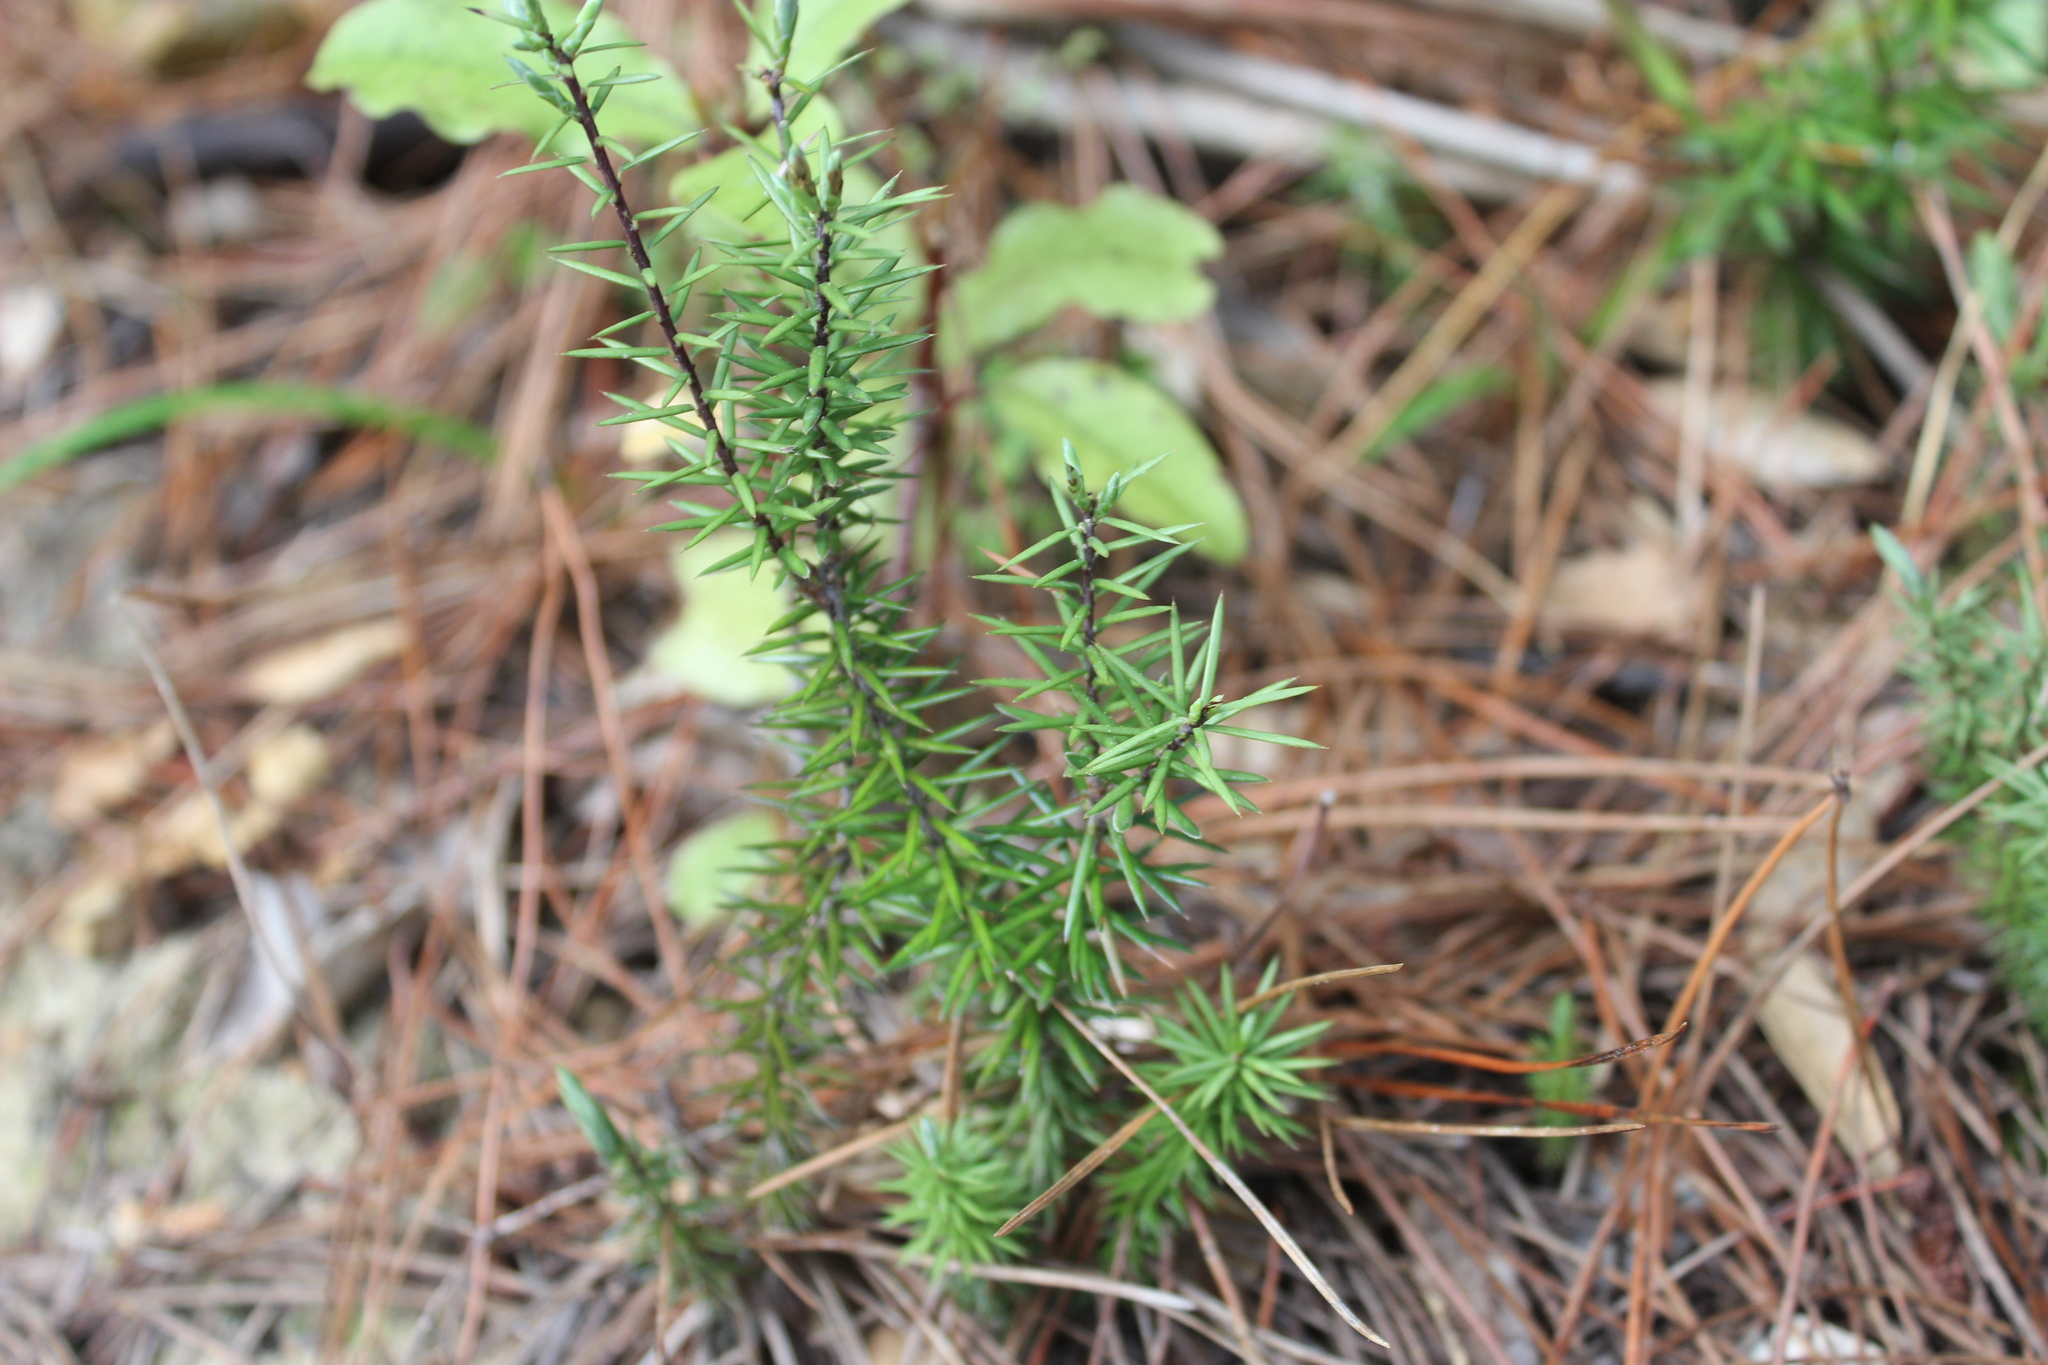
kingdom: Plantae
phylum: Tracheophyta
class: Magnoliopsida
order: Ericales
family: Ericaceae
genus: Leptecophylla
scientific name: Leptecophylla juniperina
